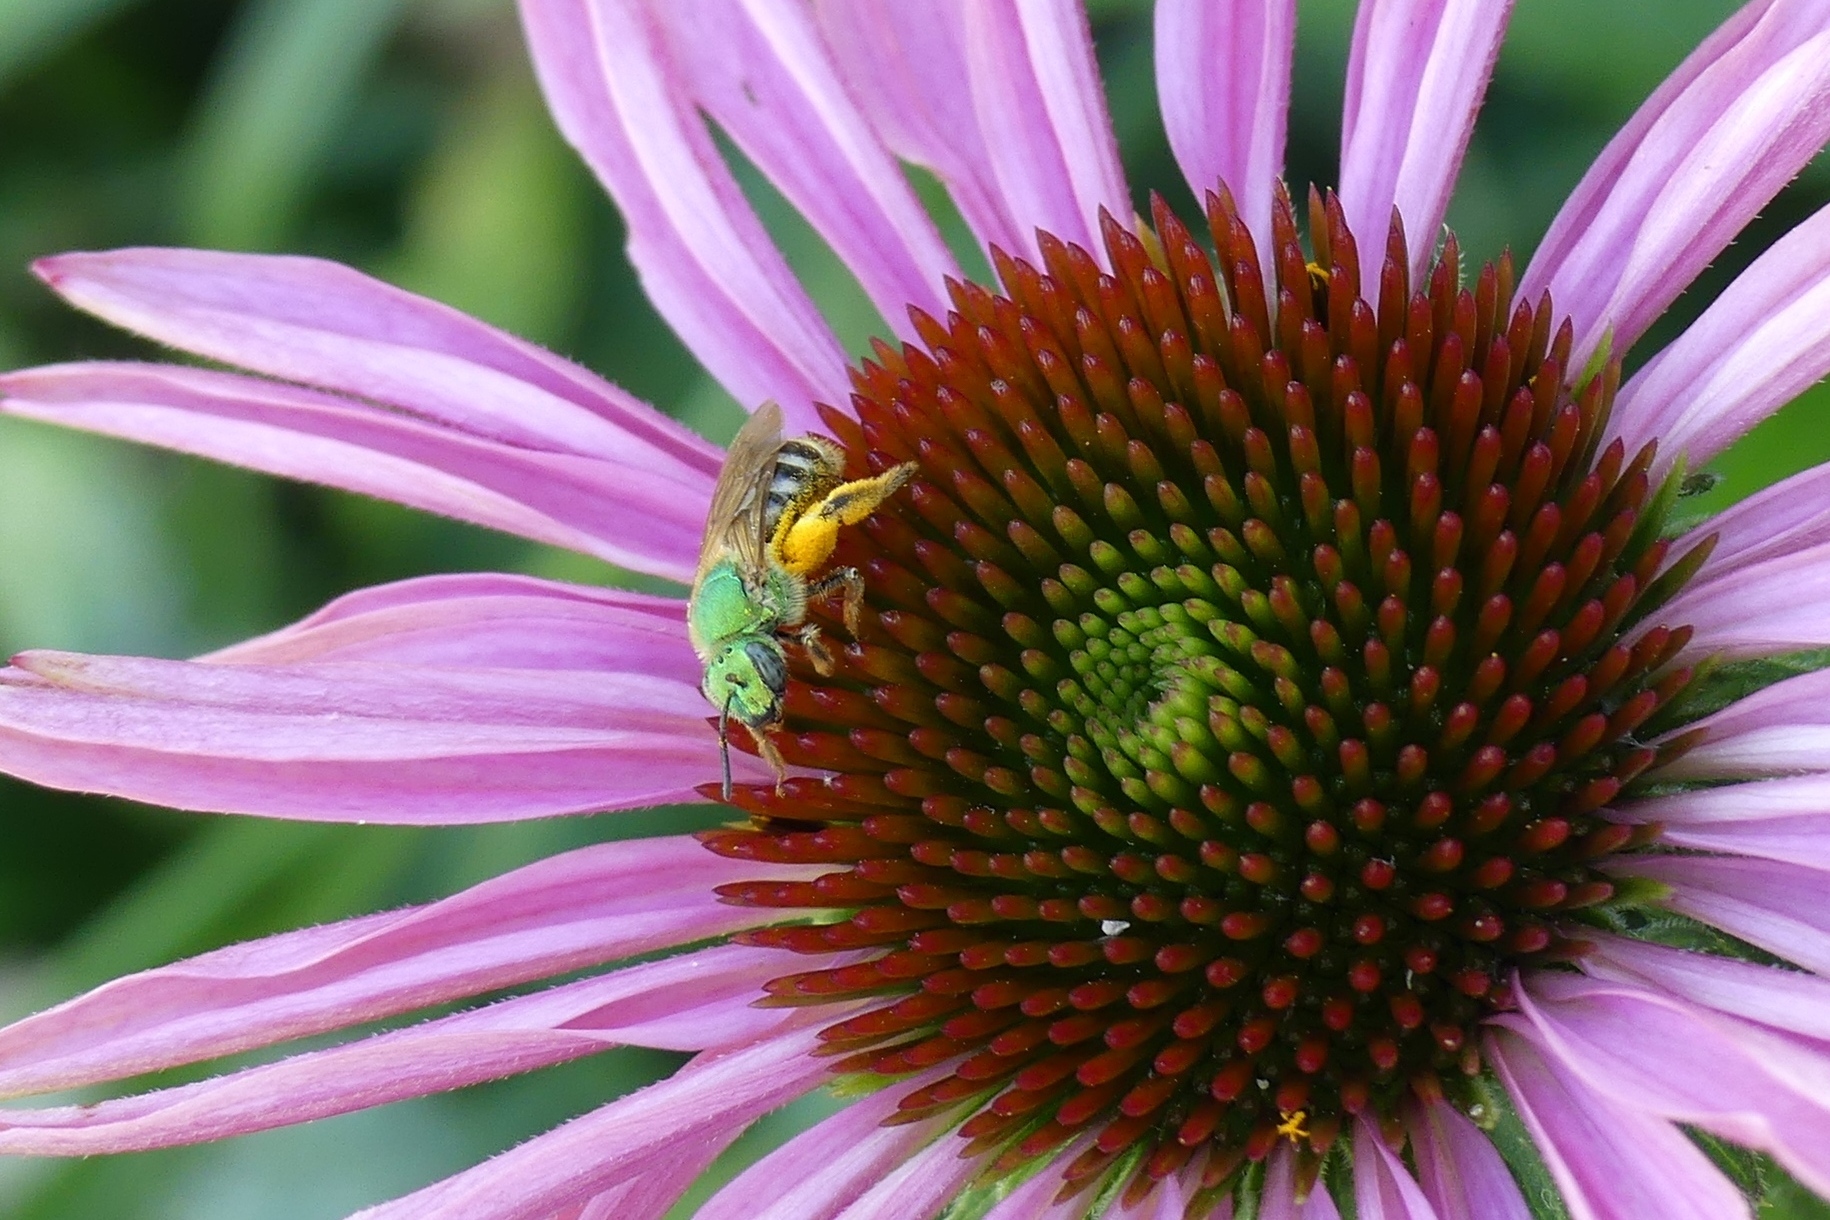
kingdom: Animalia
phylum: Arthropoda
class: Insecta
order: Hymenoptera
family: Halictidae
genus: Agapostemon
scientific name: Agapostemon virescens
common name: Bicolored striped sweat bee
